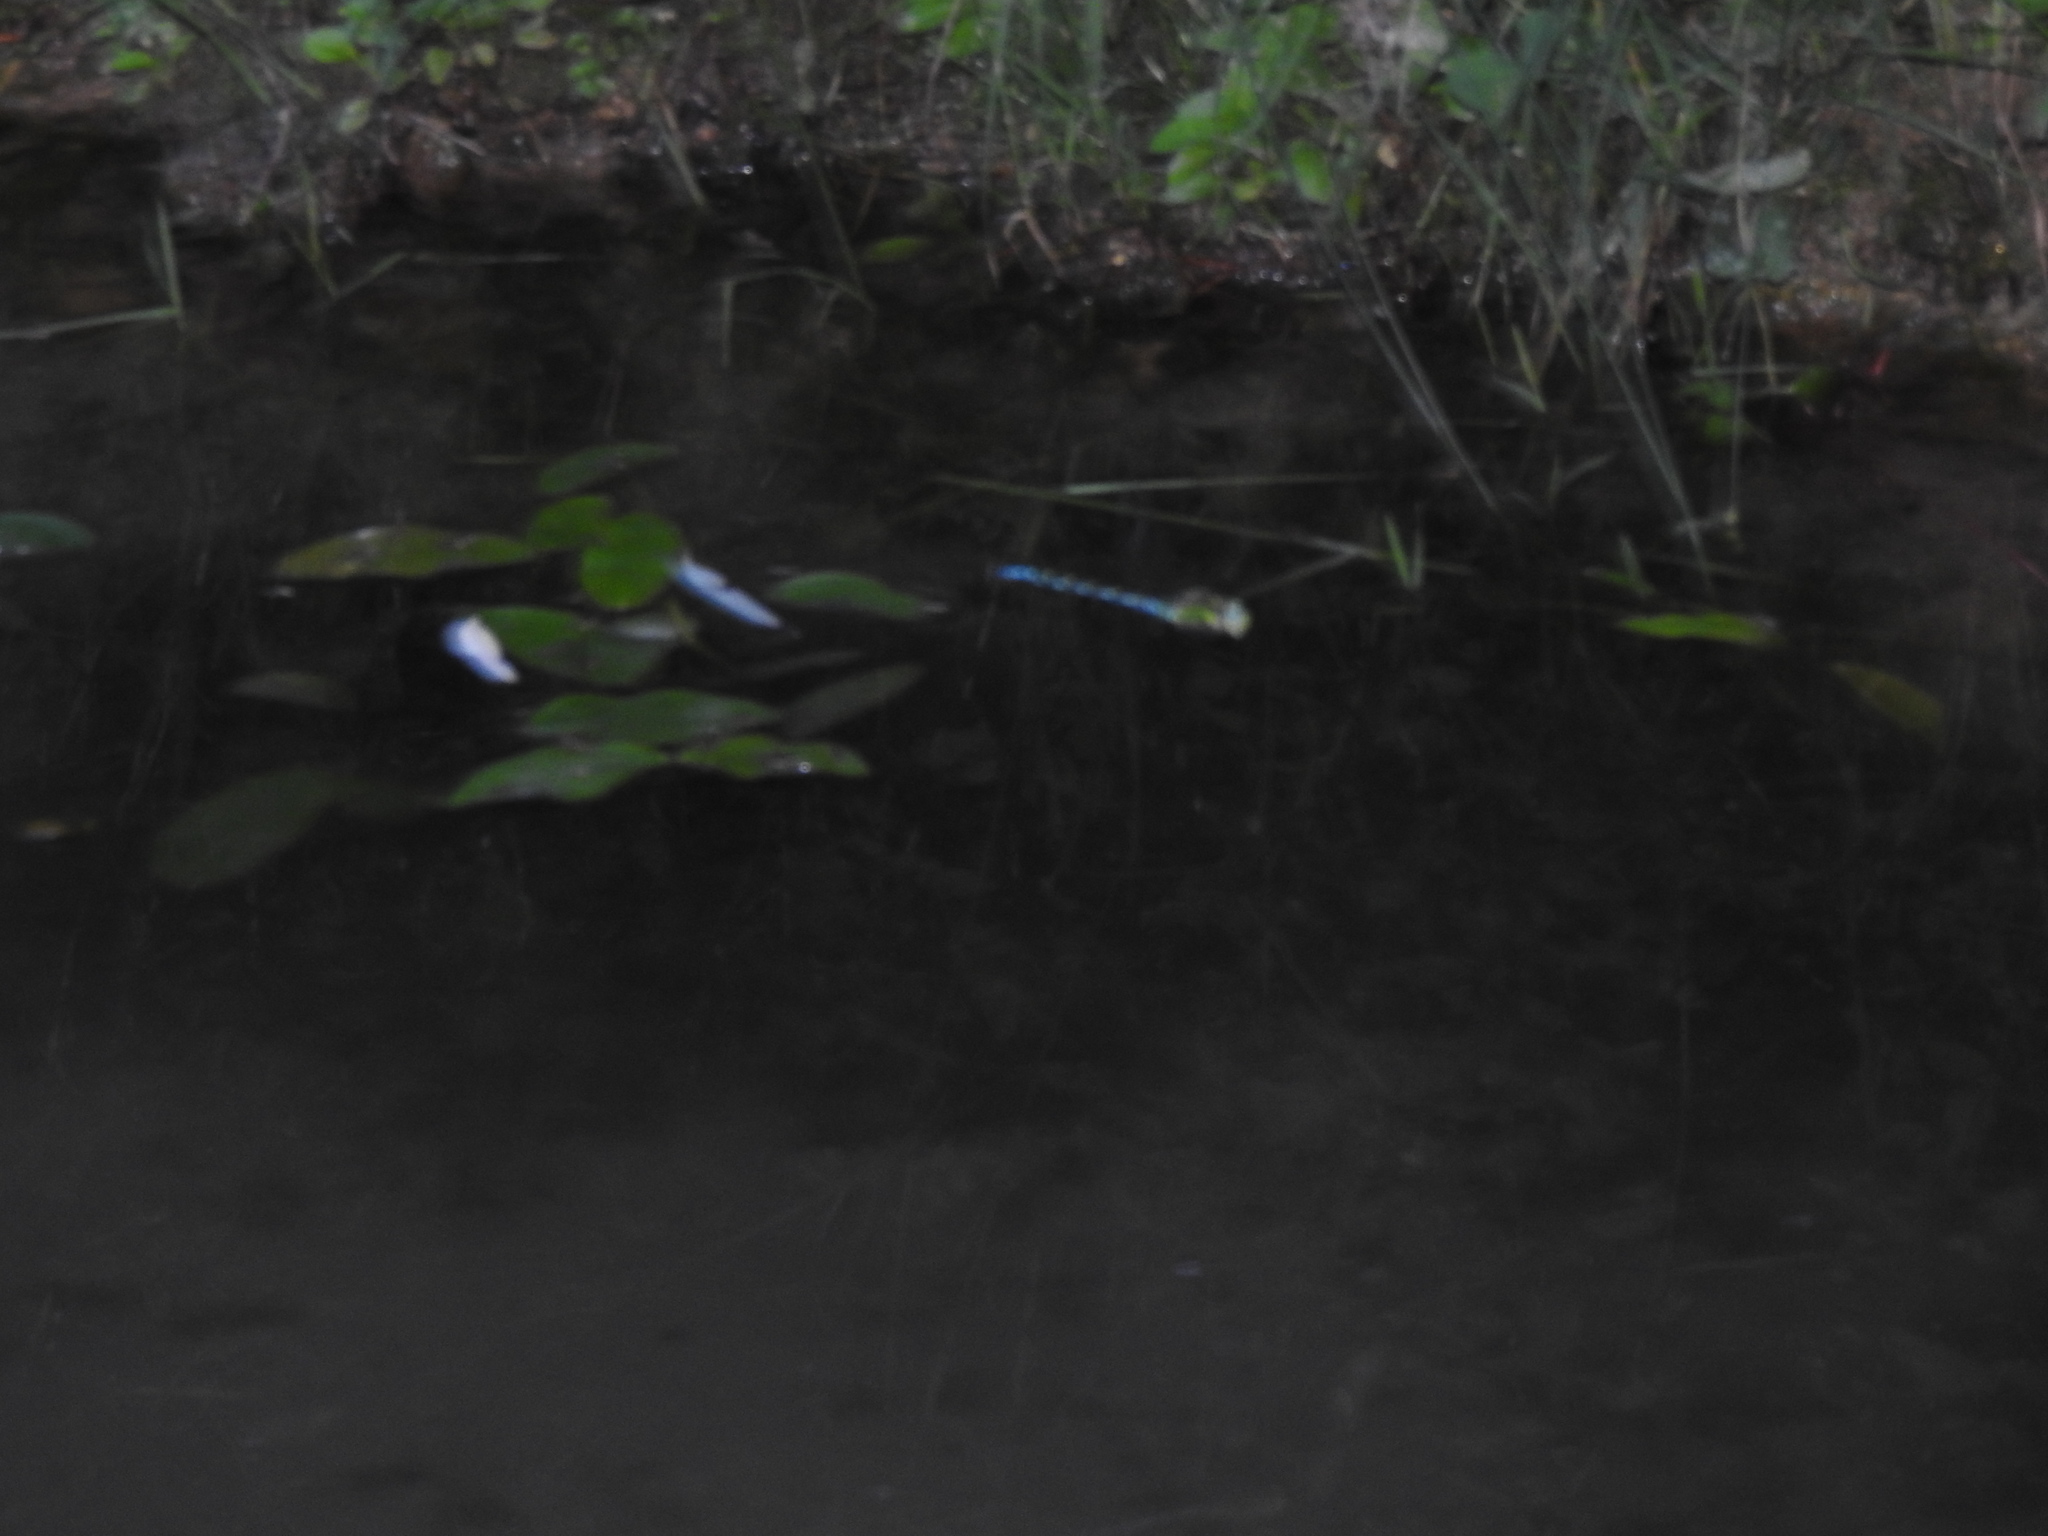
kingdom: Animalia
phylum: Arthropoda
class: Insecta
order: Odonata
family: Aeshnidae
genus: Aeshna
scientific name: Aeshna cyanea
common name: Southern hawker
